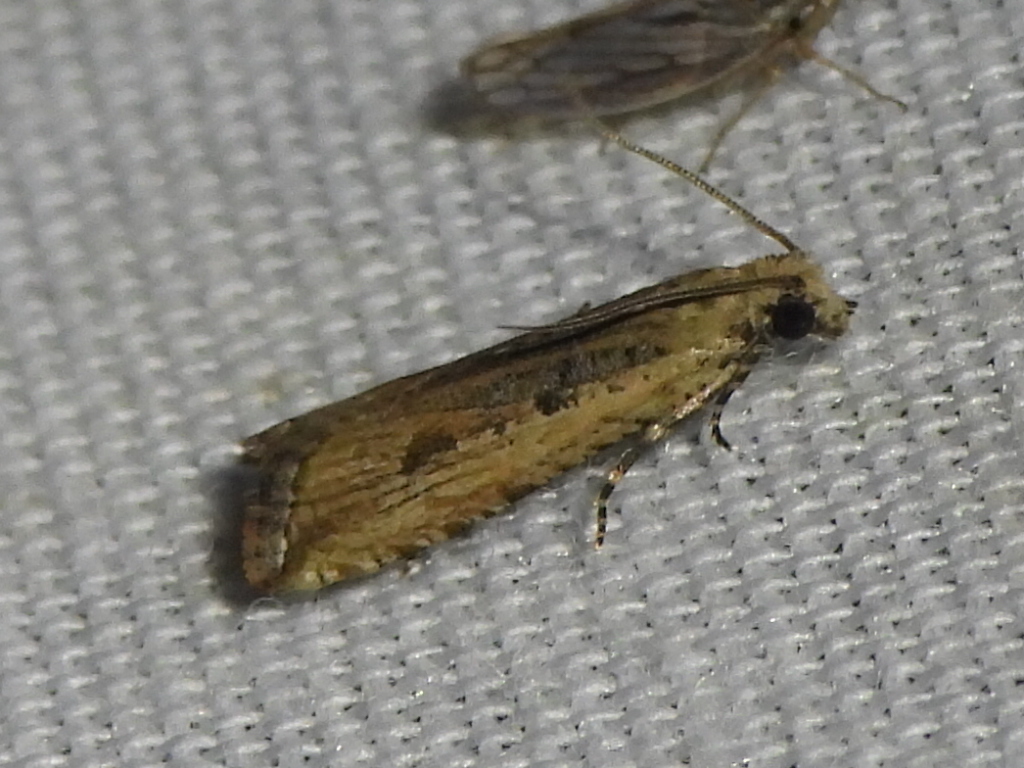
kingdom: Animalia
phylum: Arthropoda
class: Insecta
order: Lepidoptera
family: Tortricidae
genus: Bactra
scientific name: Bactra verutana
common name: Javelin moth
